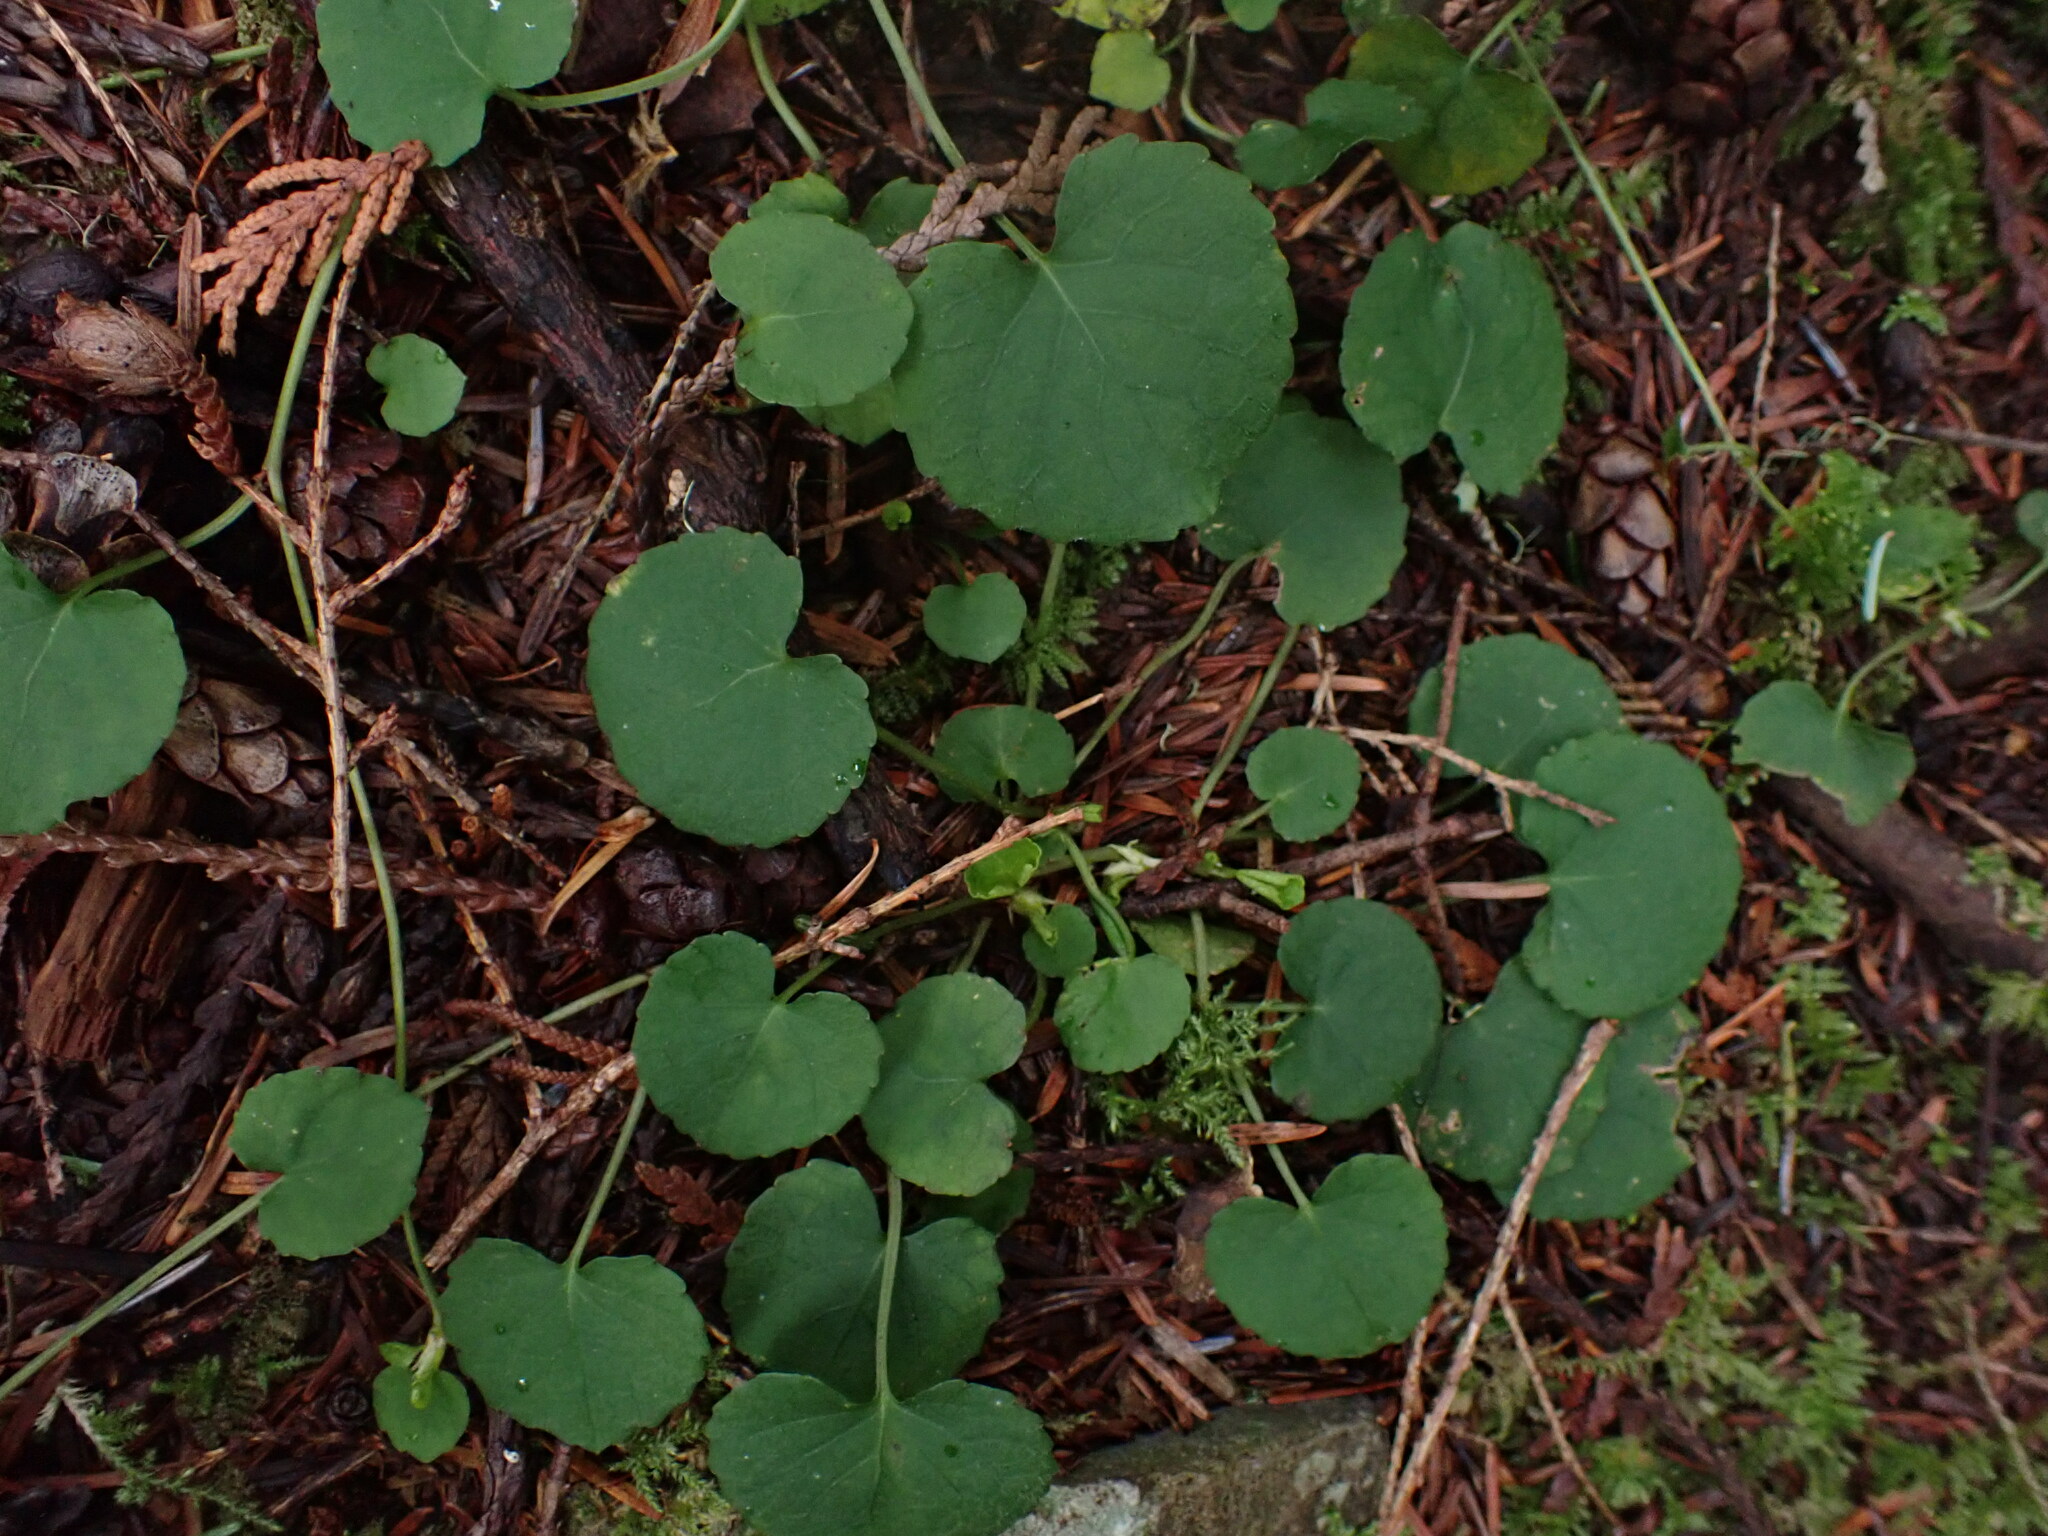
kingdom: Plantae
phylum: Tracheophyta
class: Magnoliopsida
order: Malpighiales
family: Violaceae
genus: Viola
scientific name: Viola sempervirens
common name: Evergreen violet
